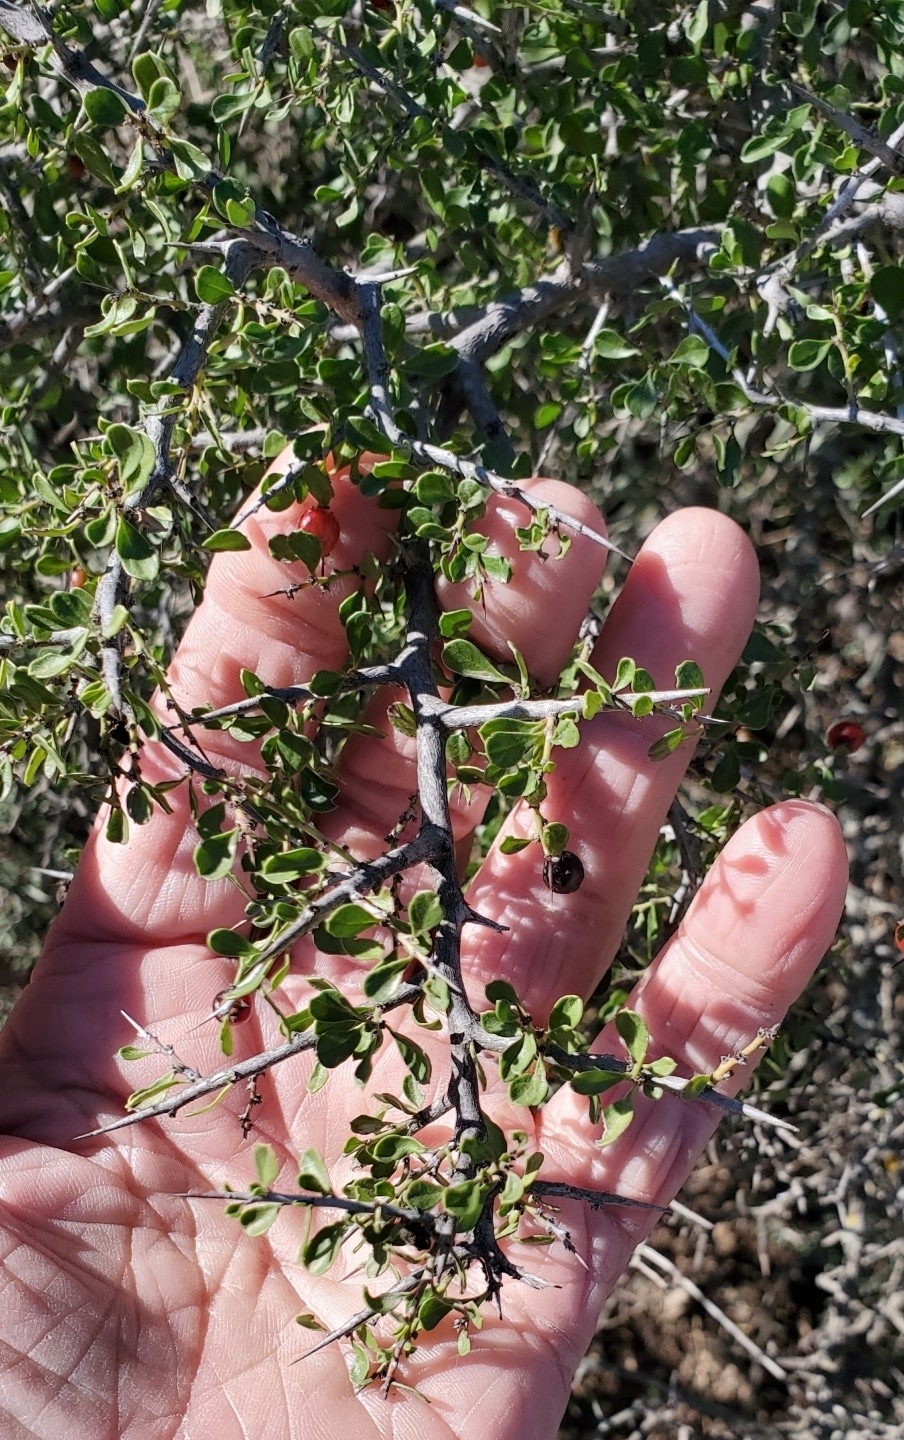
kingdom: Plantae
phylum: Tracheophyta
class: Magnoliopsida
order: Rosales
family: Rhamnaceae
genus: Condalia
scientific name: Condalia viridis
